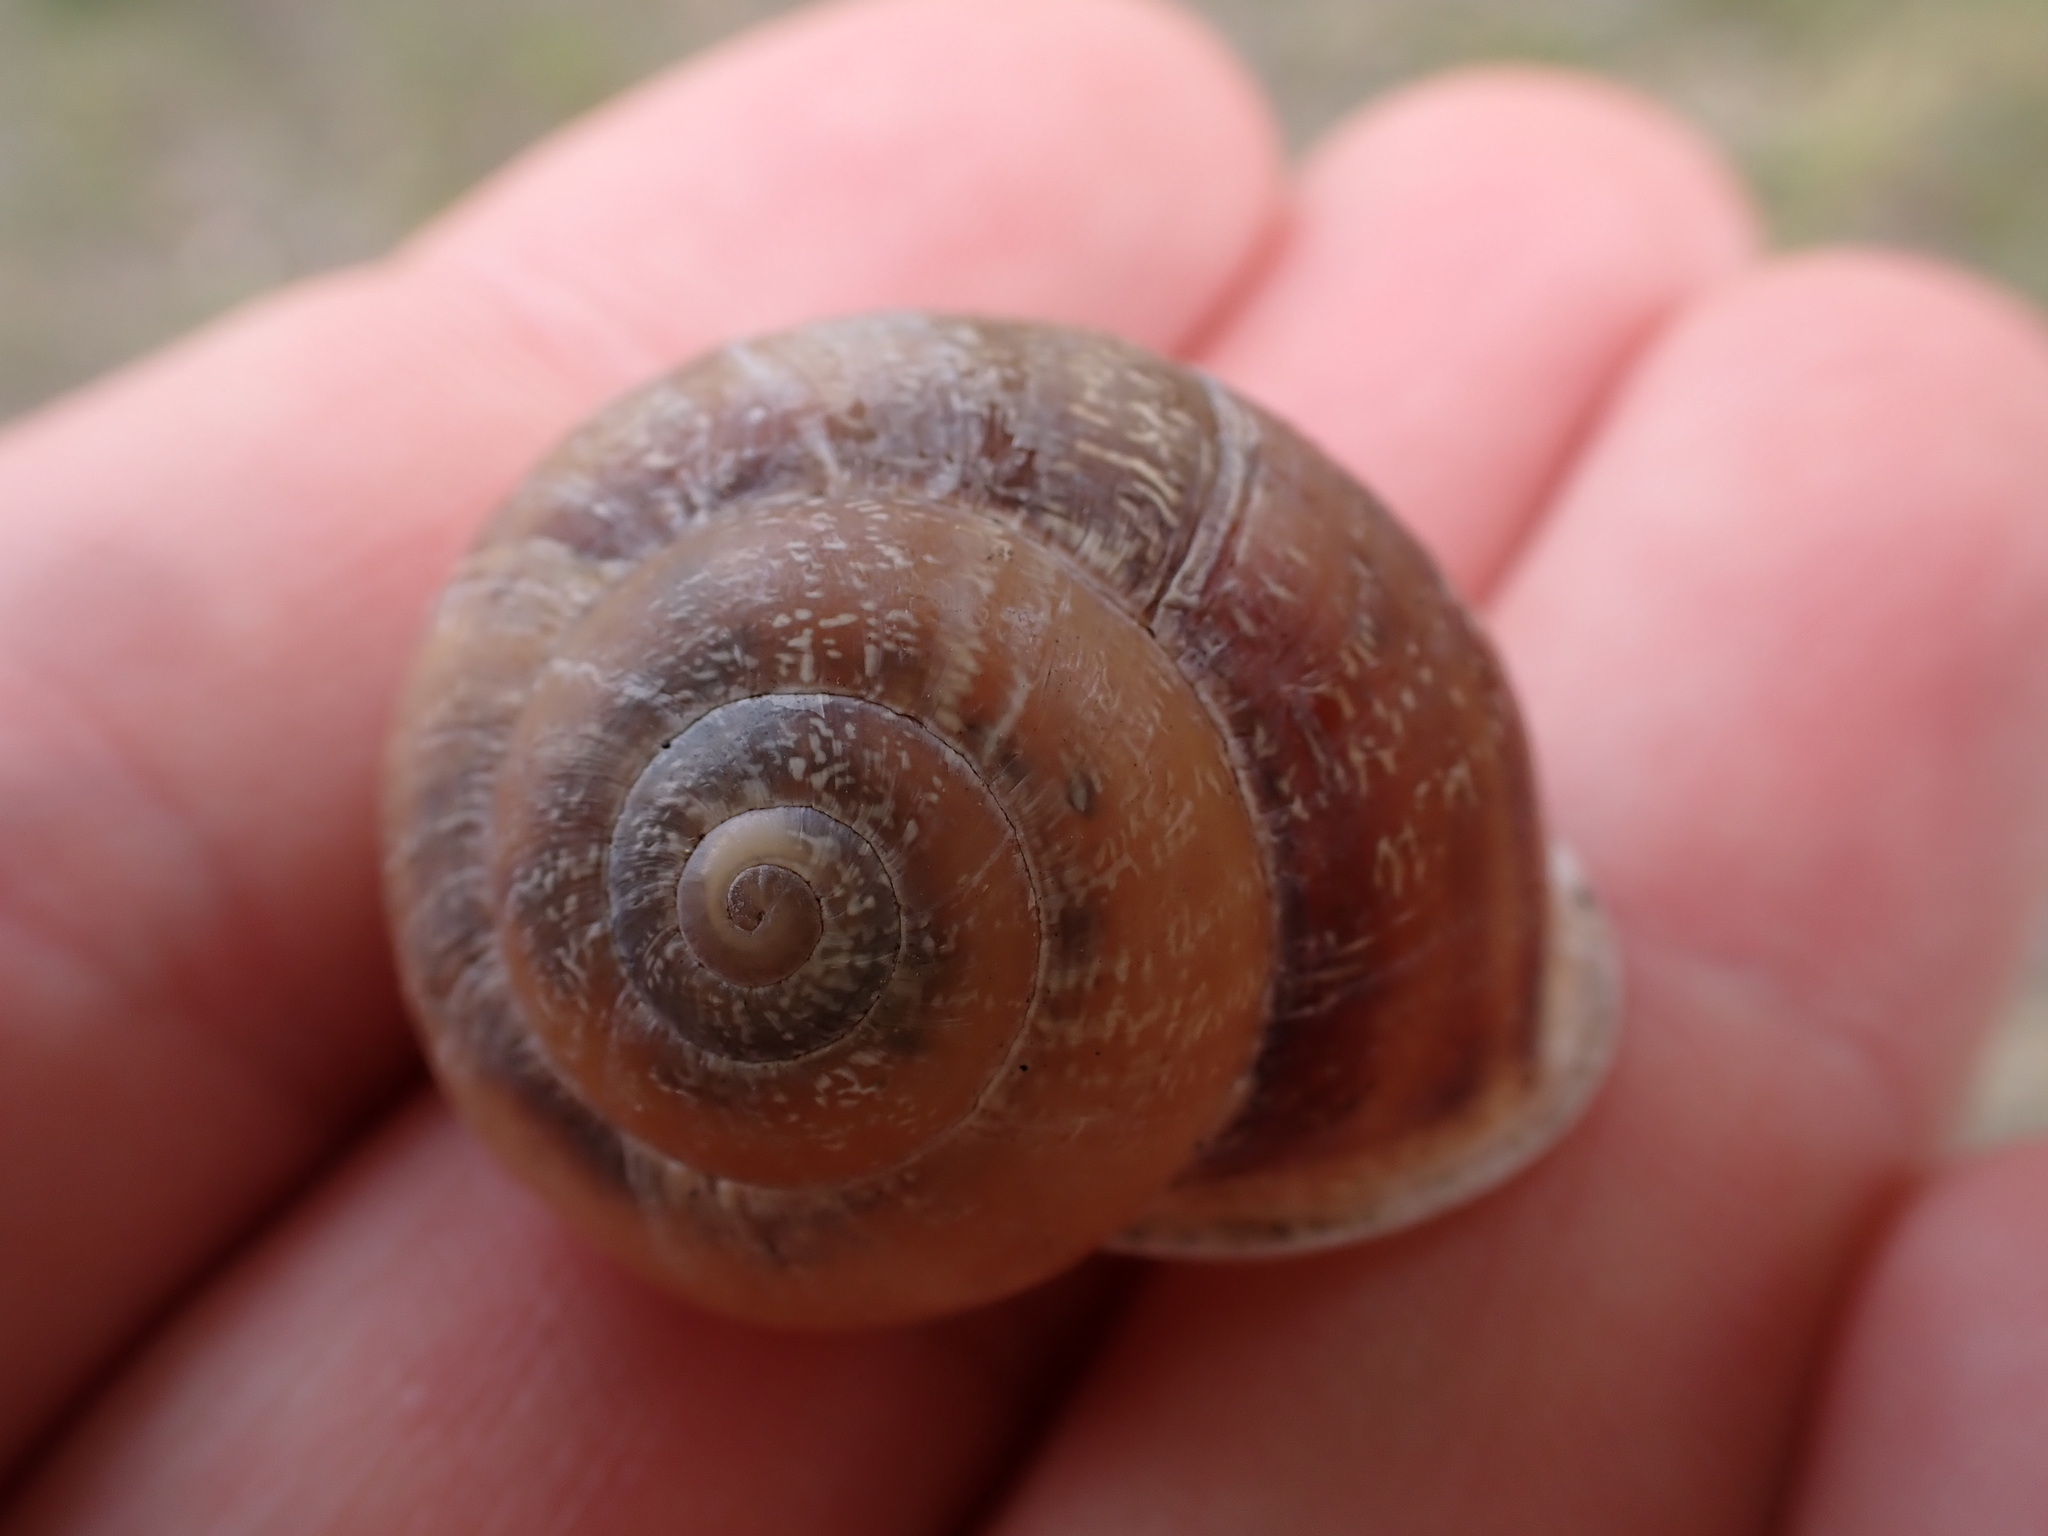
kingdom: Animalia
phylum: Mollusca
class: Gastropoda
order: Stylommatophora
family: Helicidae
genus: Eobania
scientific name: Eobania vermiculata
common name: Chocolateband snail
